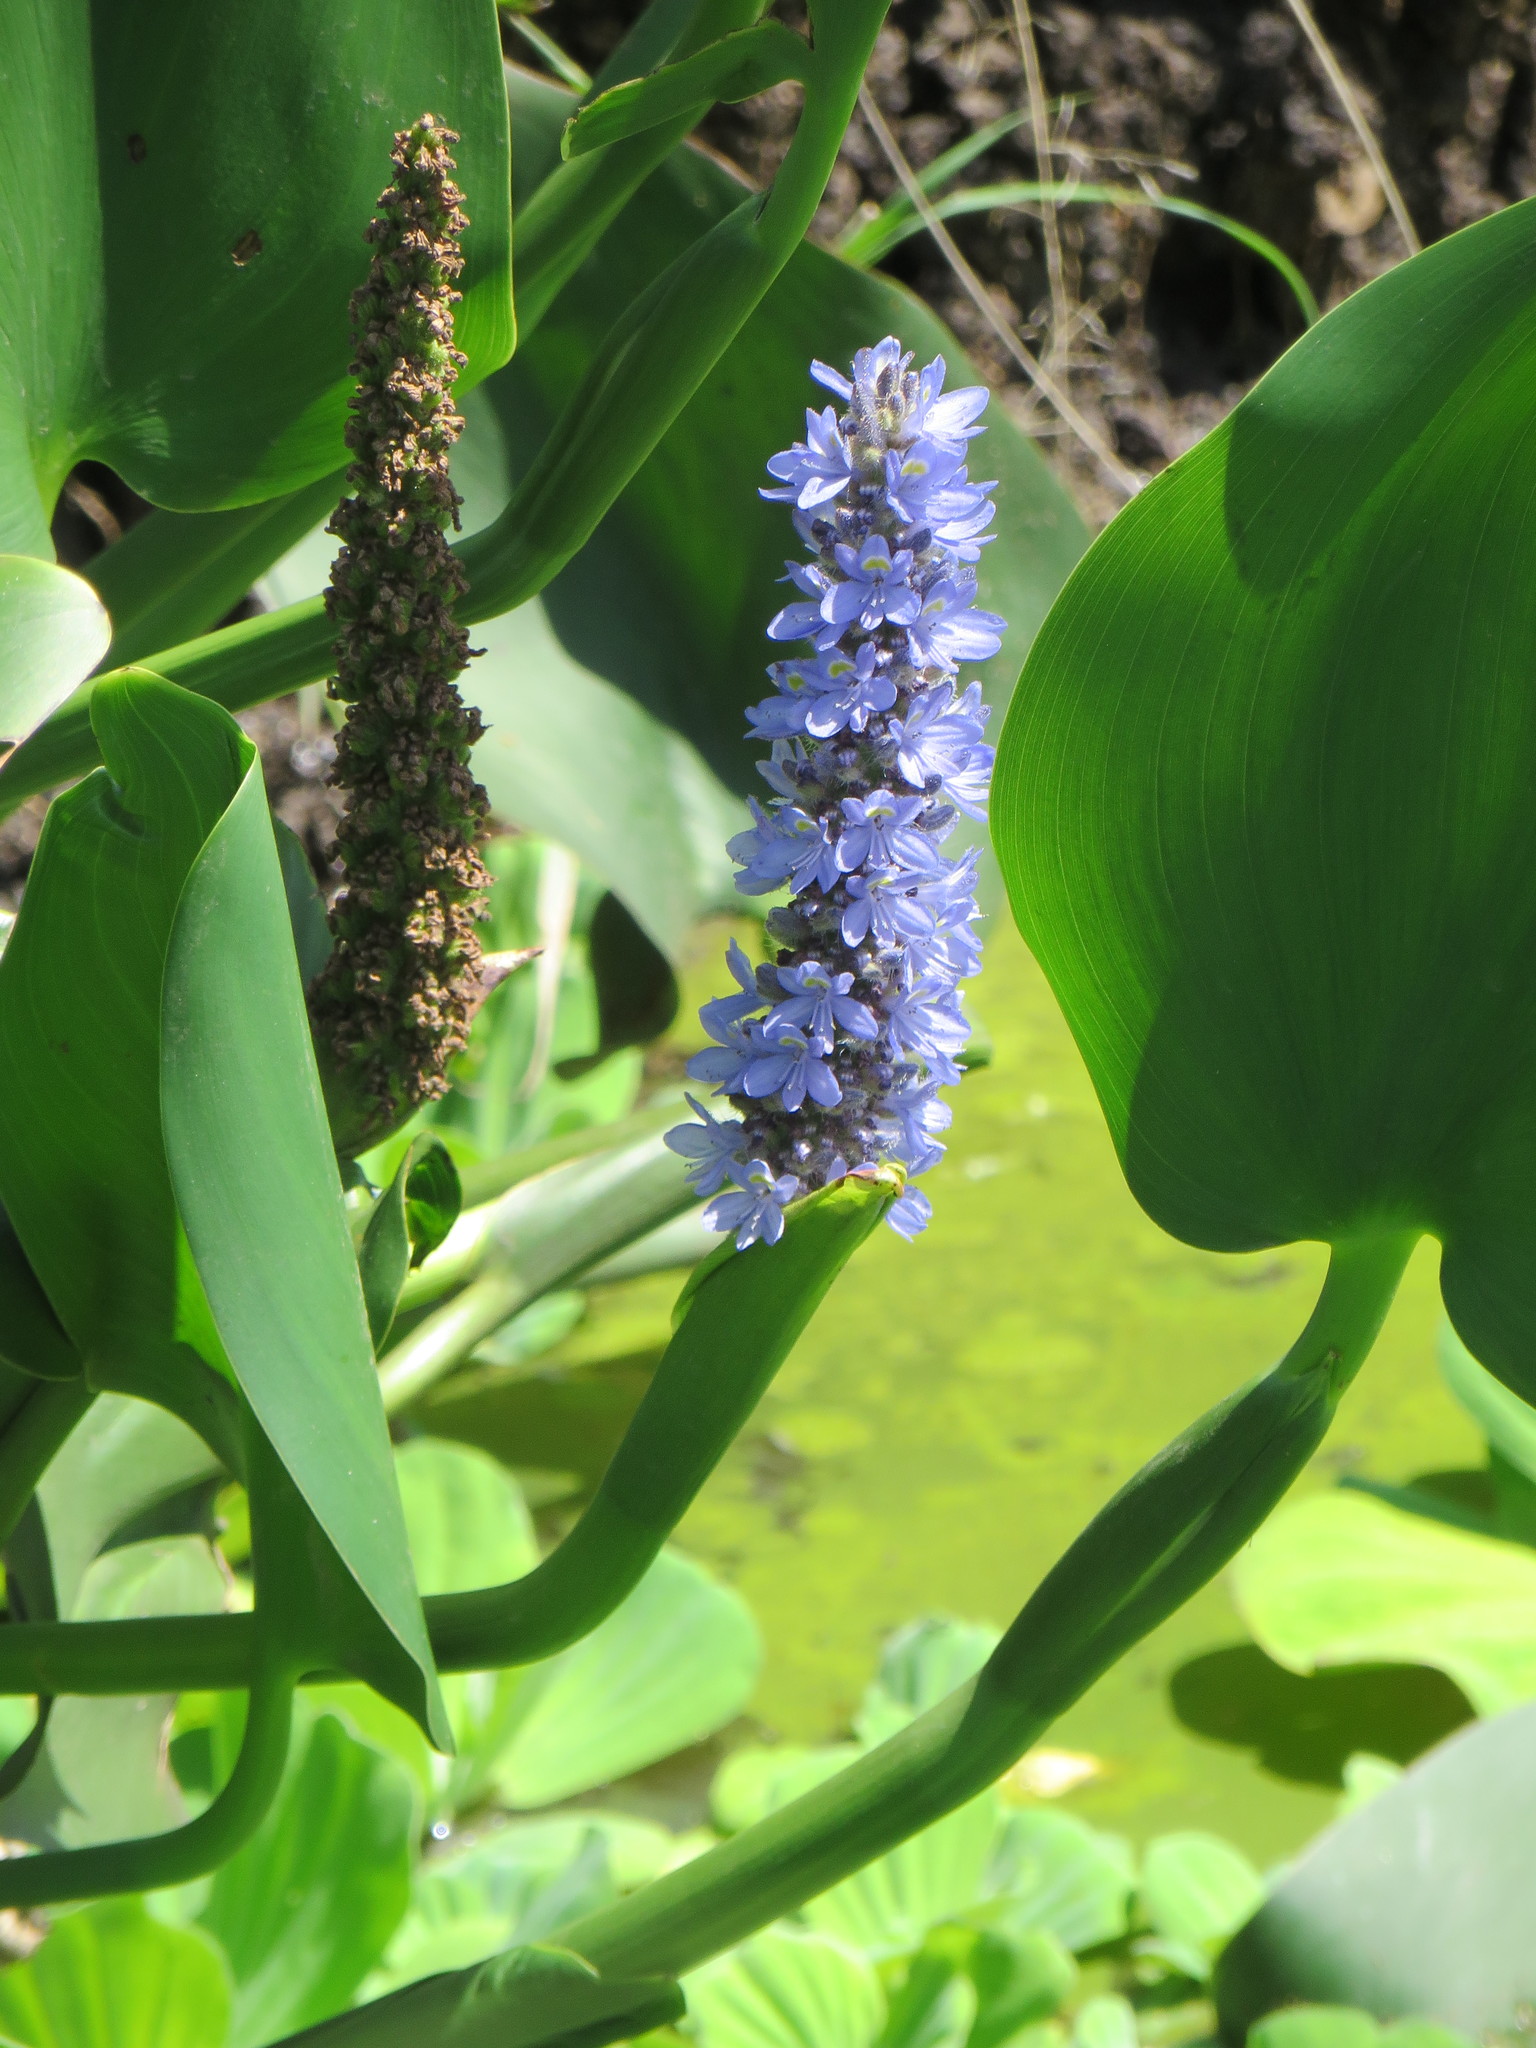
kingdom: Plantae
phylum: Tracheophyta
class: Liliopsida
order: Commelinales
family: Pontederiaceae
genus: Pontederia
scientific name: Pontederia cordata
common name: Pickerelweed
